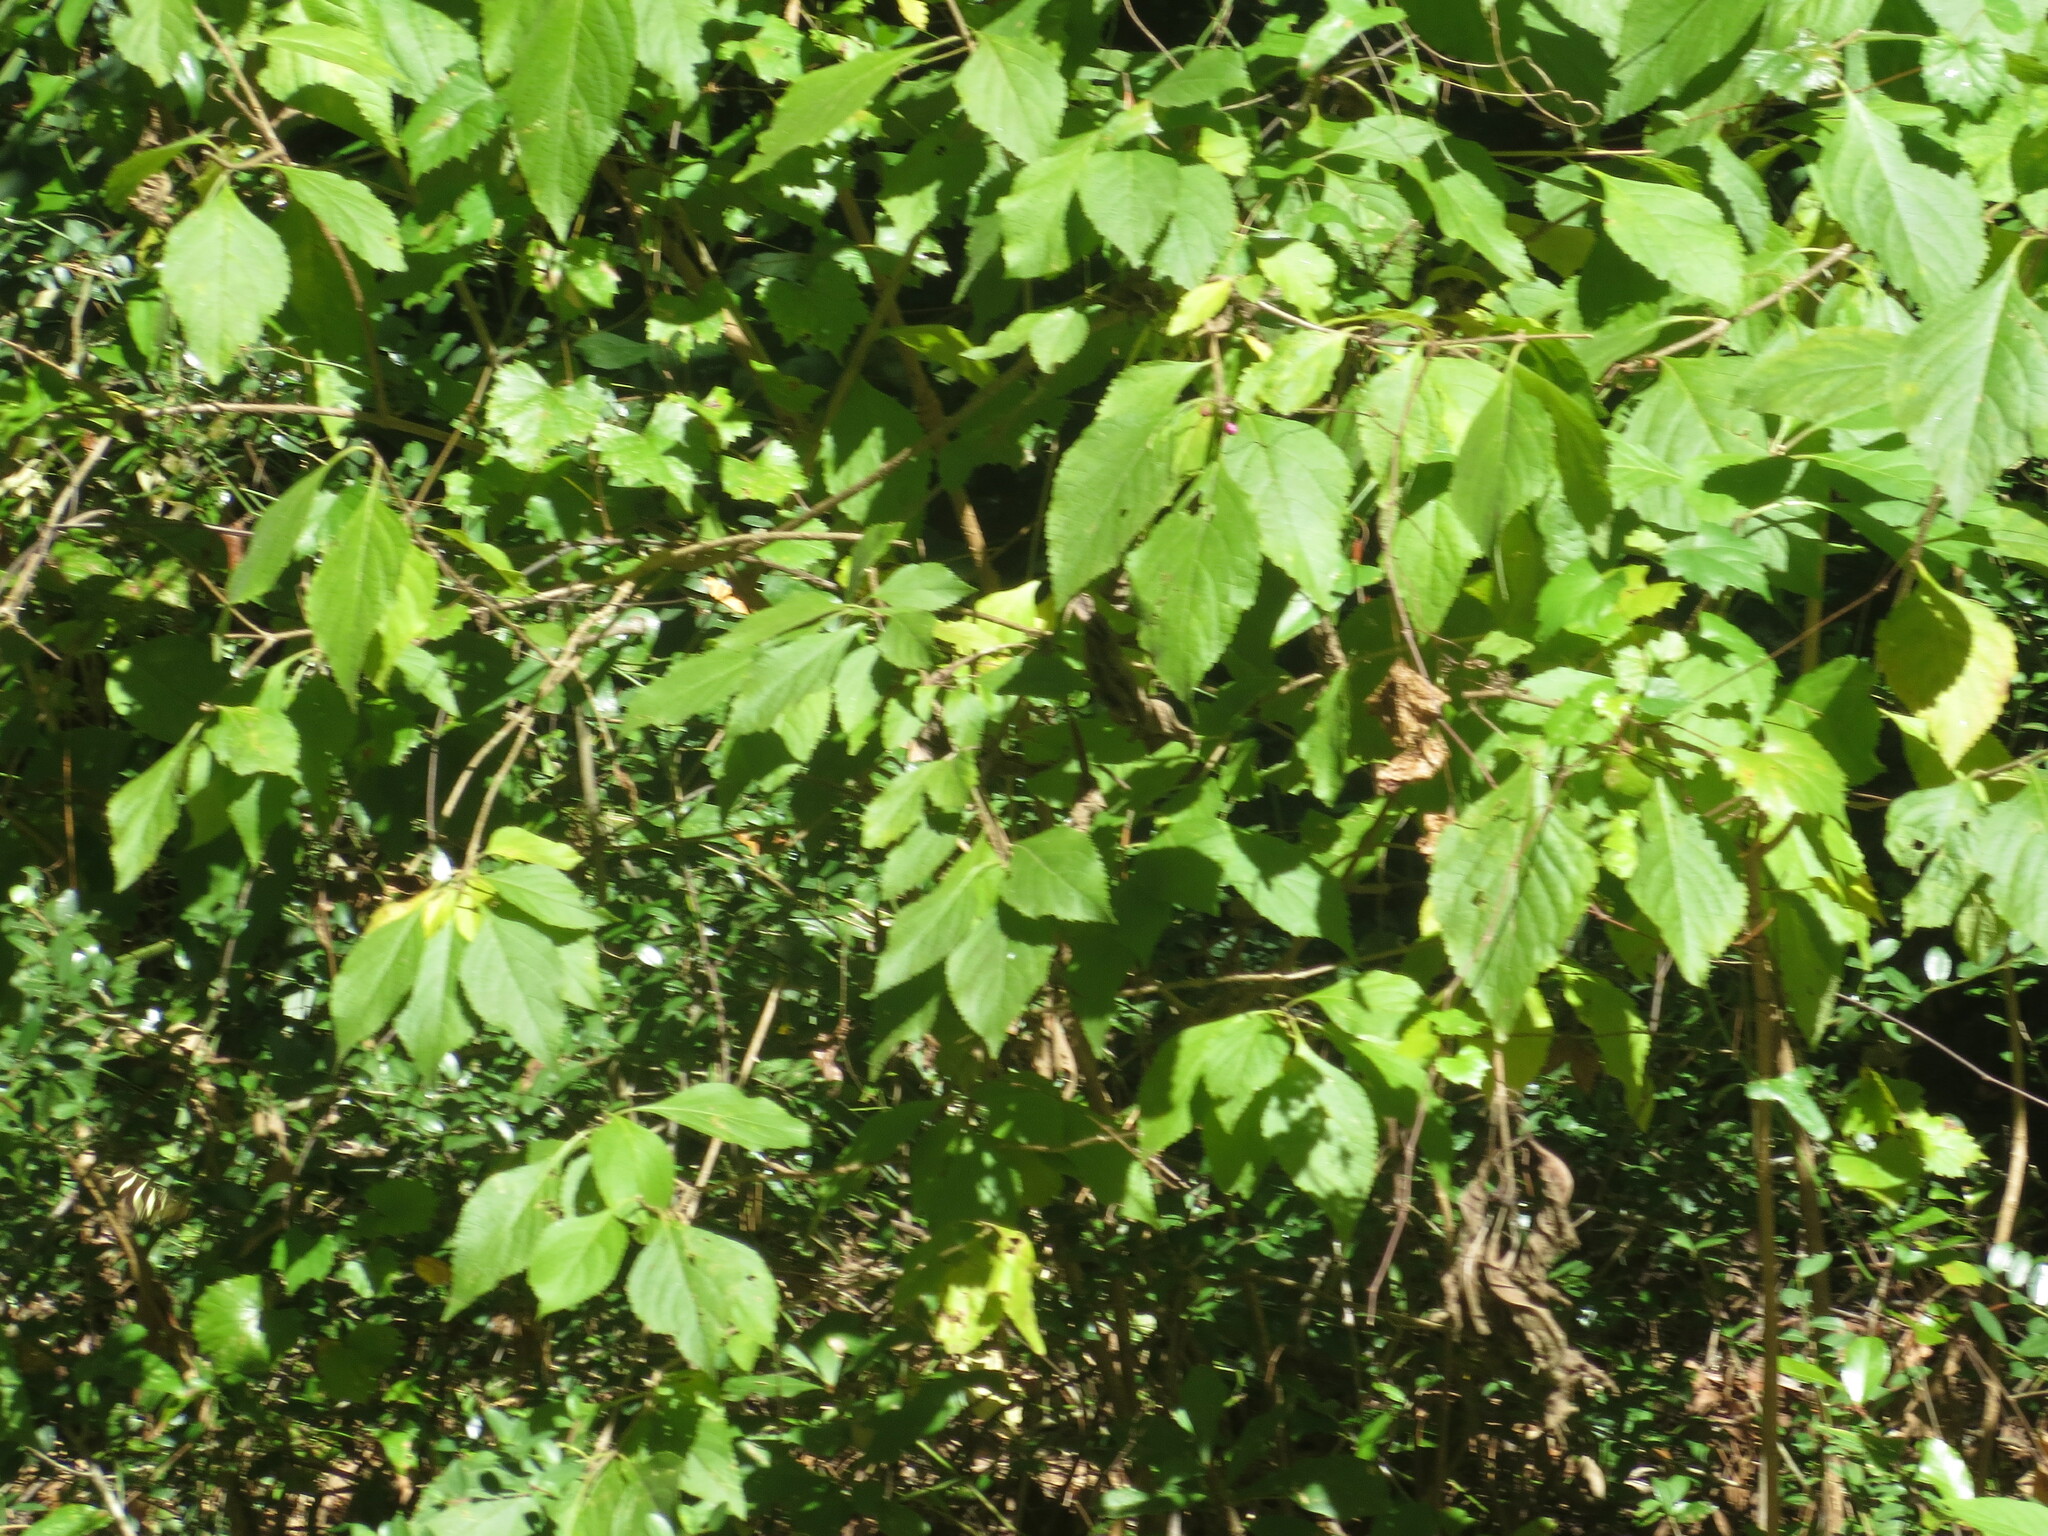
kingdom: Plantae
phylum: Tracheophyta
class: Magnoliopsida
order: Lamiales
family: Lamiaceae
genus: Callicarpa
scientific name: Callicarpa americana
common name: American beautyberry
